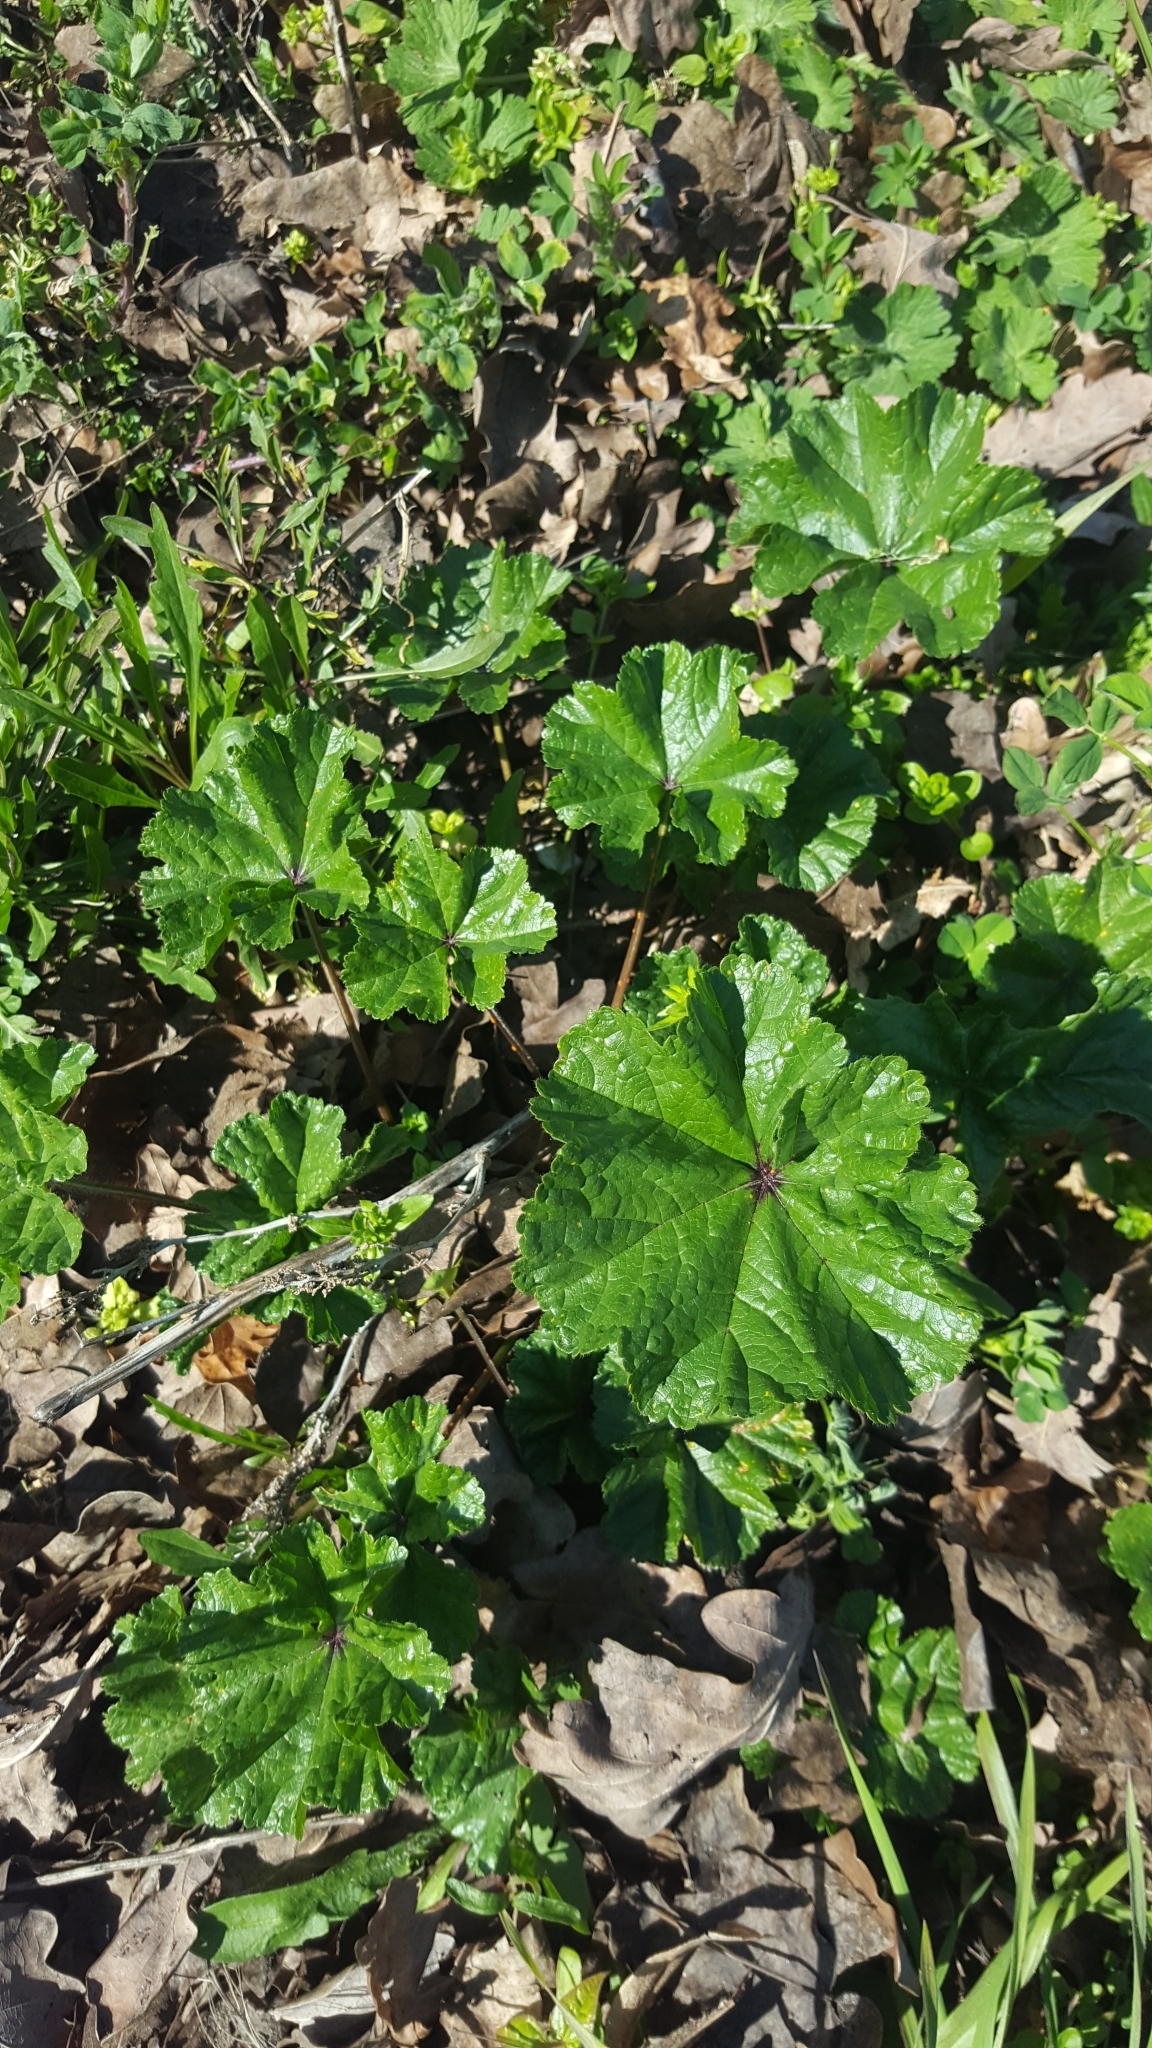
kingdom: Plantae
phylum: Tracheophyta
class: Magnoliopsida
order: Malvales
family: Malvaceae
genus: Malva
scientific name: Malva sylvestris
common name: Common mallow
